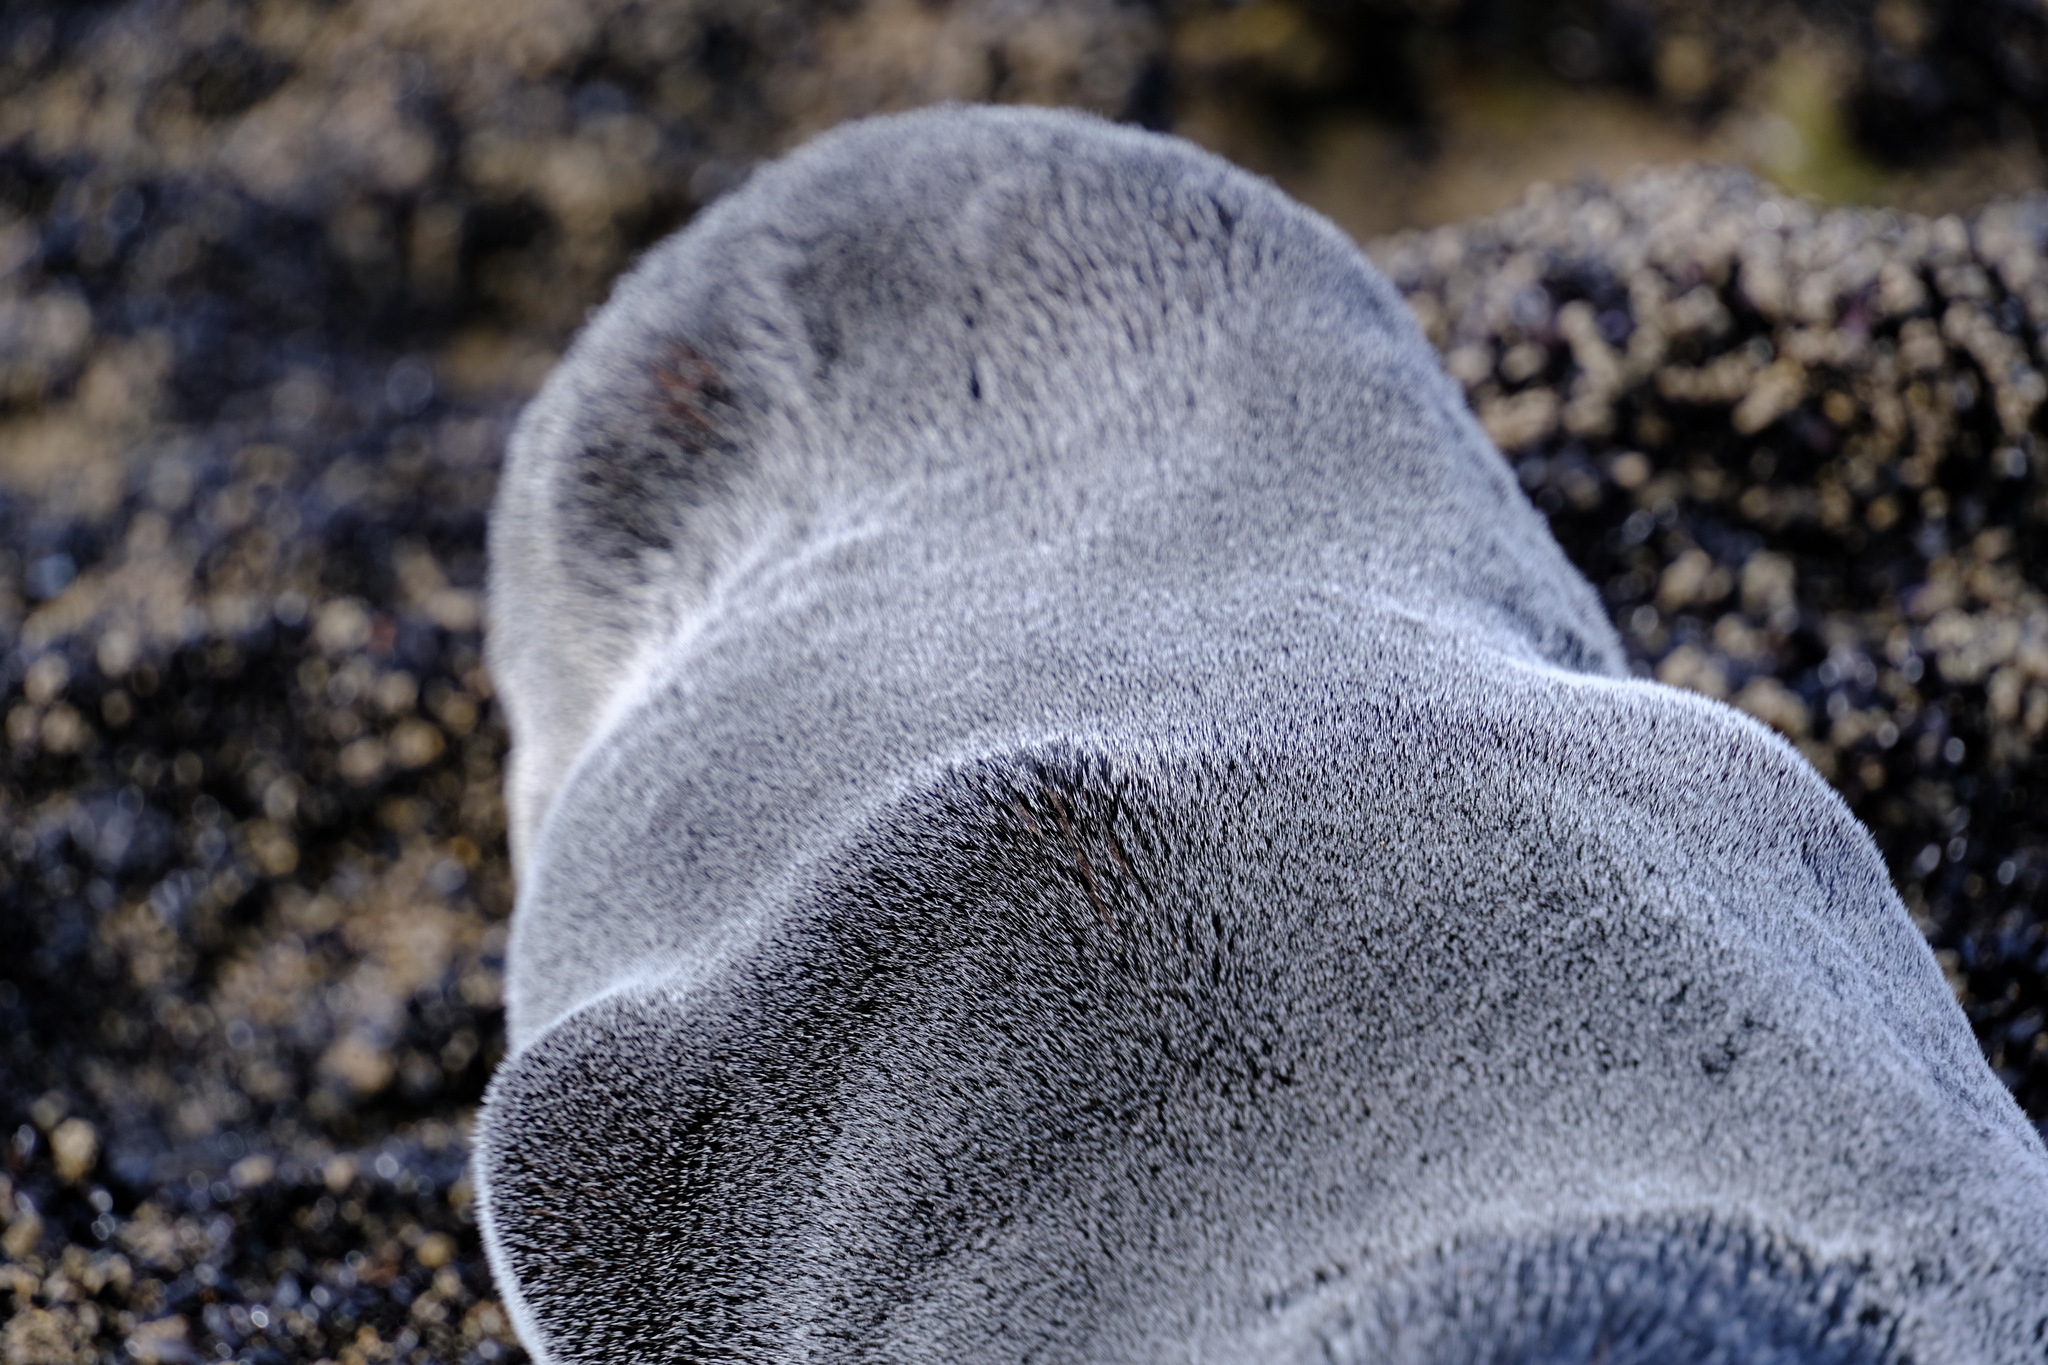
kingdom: Animalia
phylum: Chordata
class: Mammalia
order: Carnivora
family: Otariidae
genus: Arctocephalus
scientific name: Arctocephalus pusillus
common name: Brown fur seal
